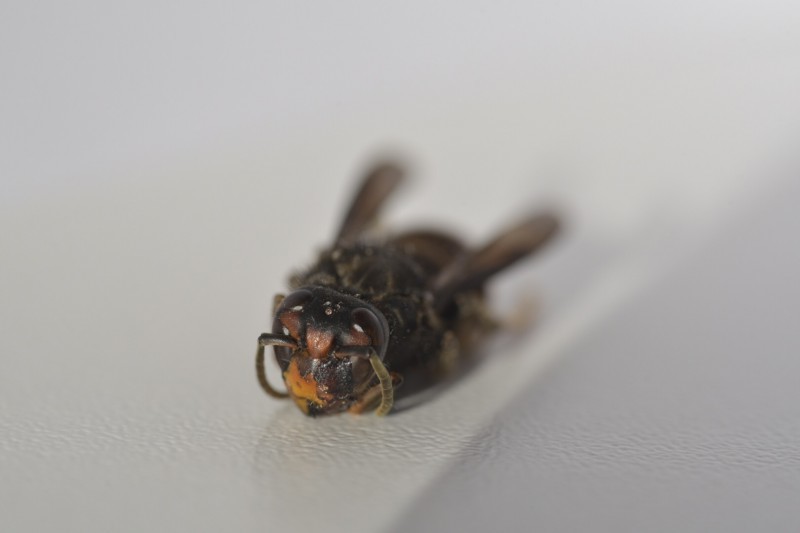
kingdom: Animalia
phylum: Arthropoda
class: Insecta
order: Hymenoptera
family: Vespidae
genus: Vespa
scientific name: Vespa velutina
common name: Asian hornet
